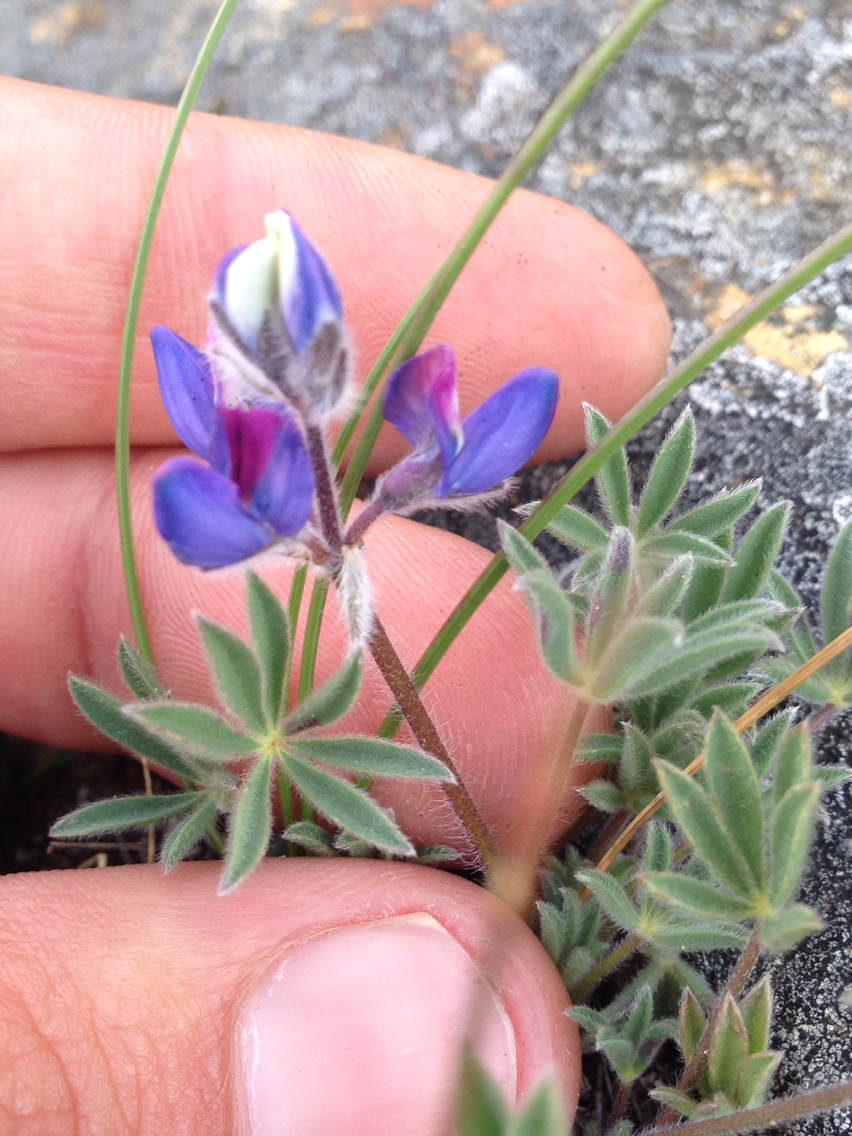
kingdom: Plantae
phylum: Tracheophyta
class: Magnoliopsida
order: Fabales
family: Fabaceae
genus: Lupinus
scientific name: Lupinus bicolor
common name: Miniature lupine
